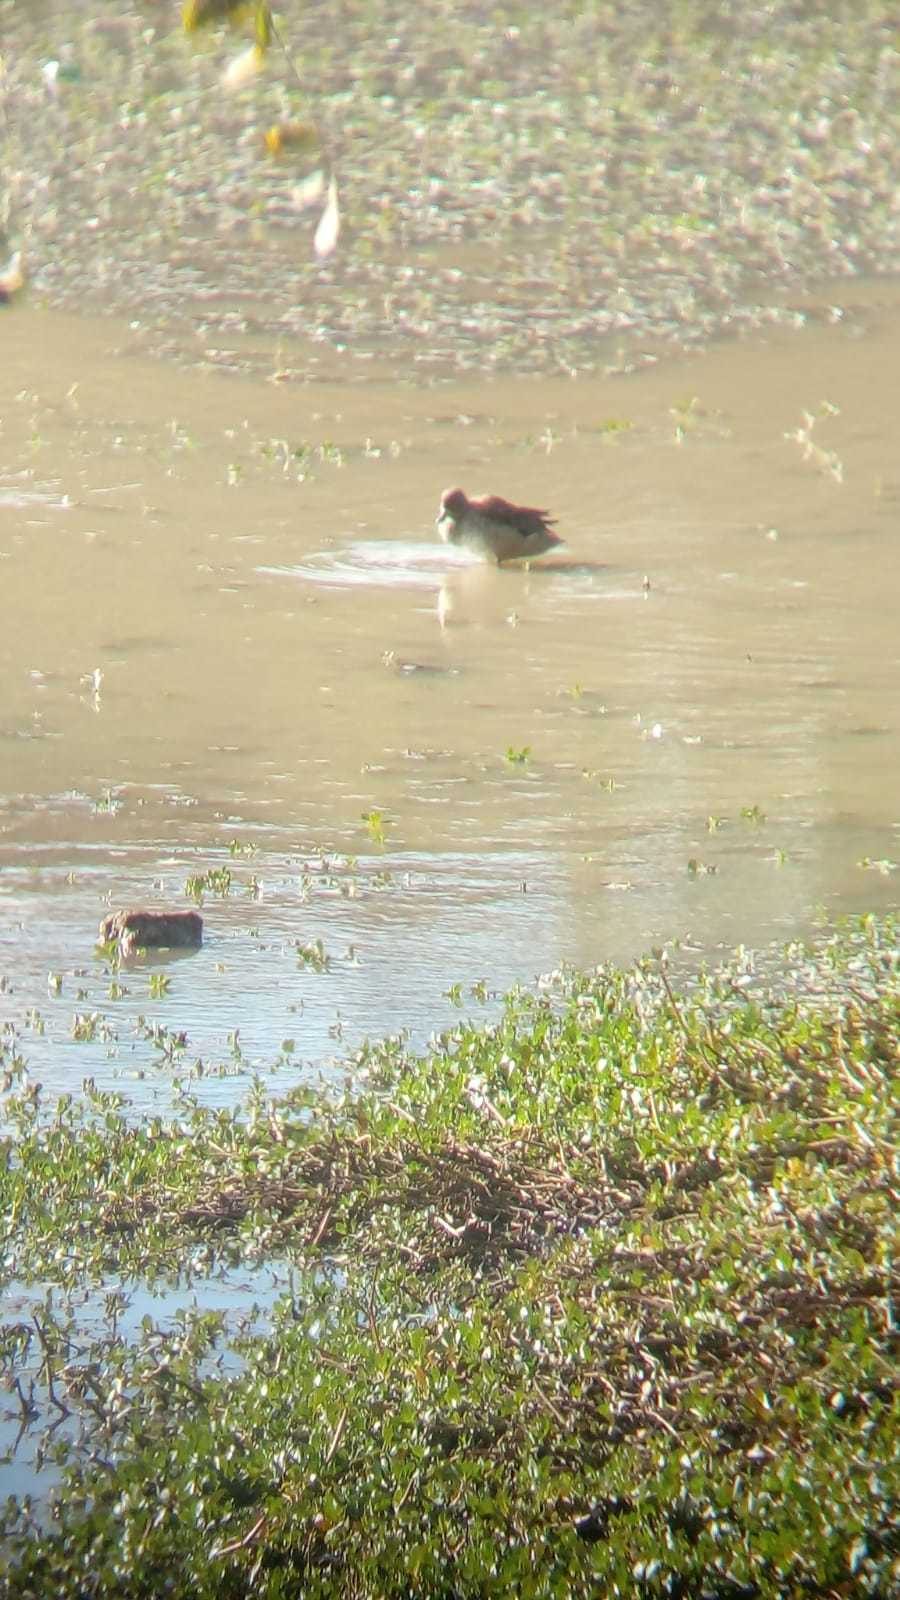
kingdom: Animalia
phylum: Chordata
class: Aves
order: Anseriformes
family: Anatidae
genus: Anas
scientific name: Anas flavirostris
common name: Yellow-billed teal
